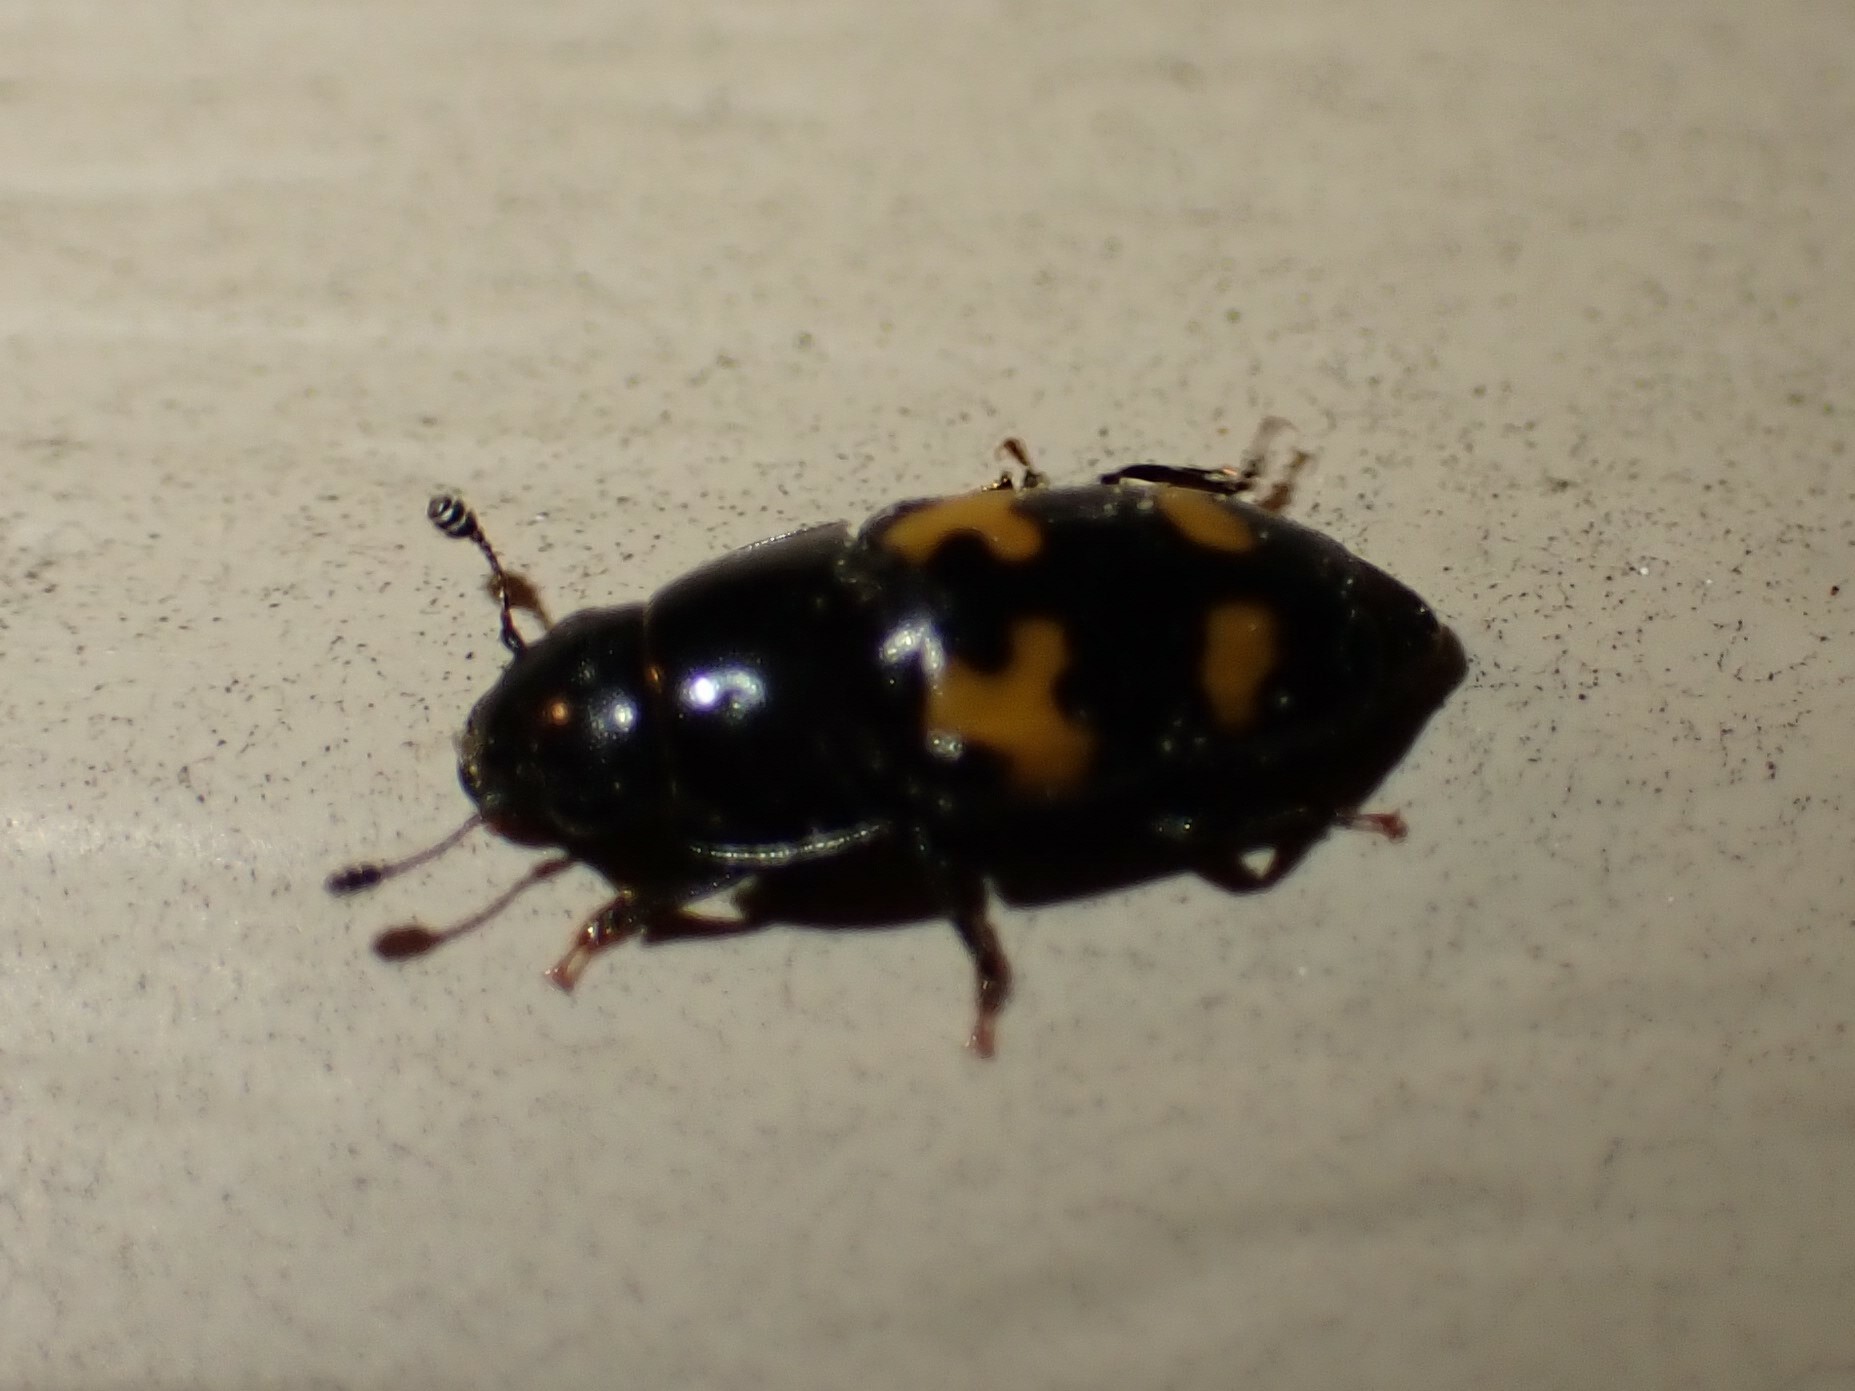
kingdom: Animalia
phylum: Arthropoda
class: Insecta
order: Coleoptera
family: Nitidulidae
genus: Glischrochilus
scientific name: Glischrochilus fasciatus
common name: Picnic beetle
